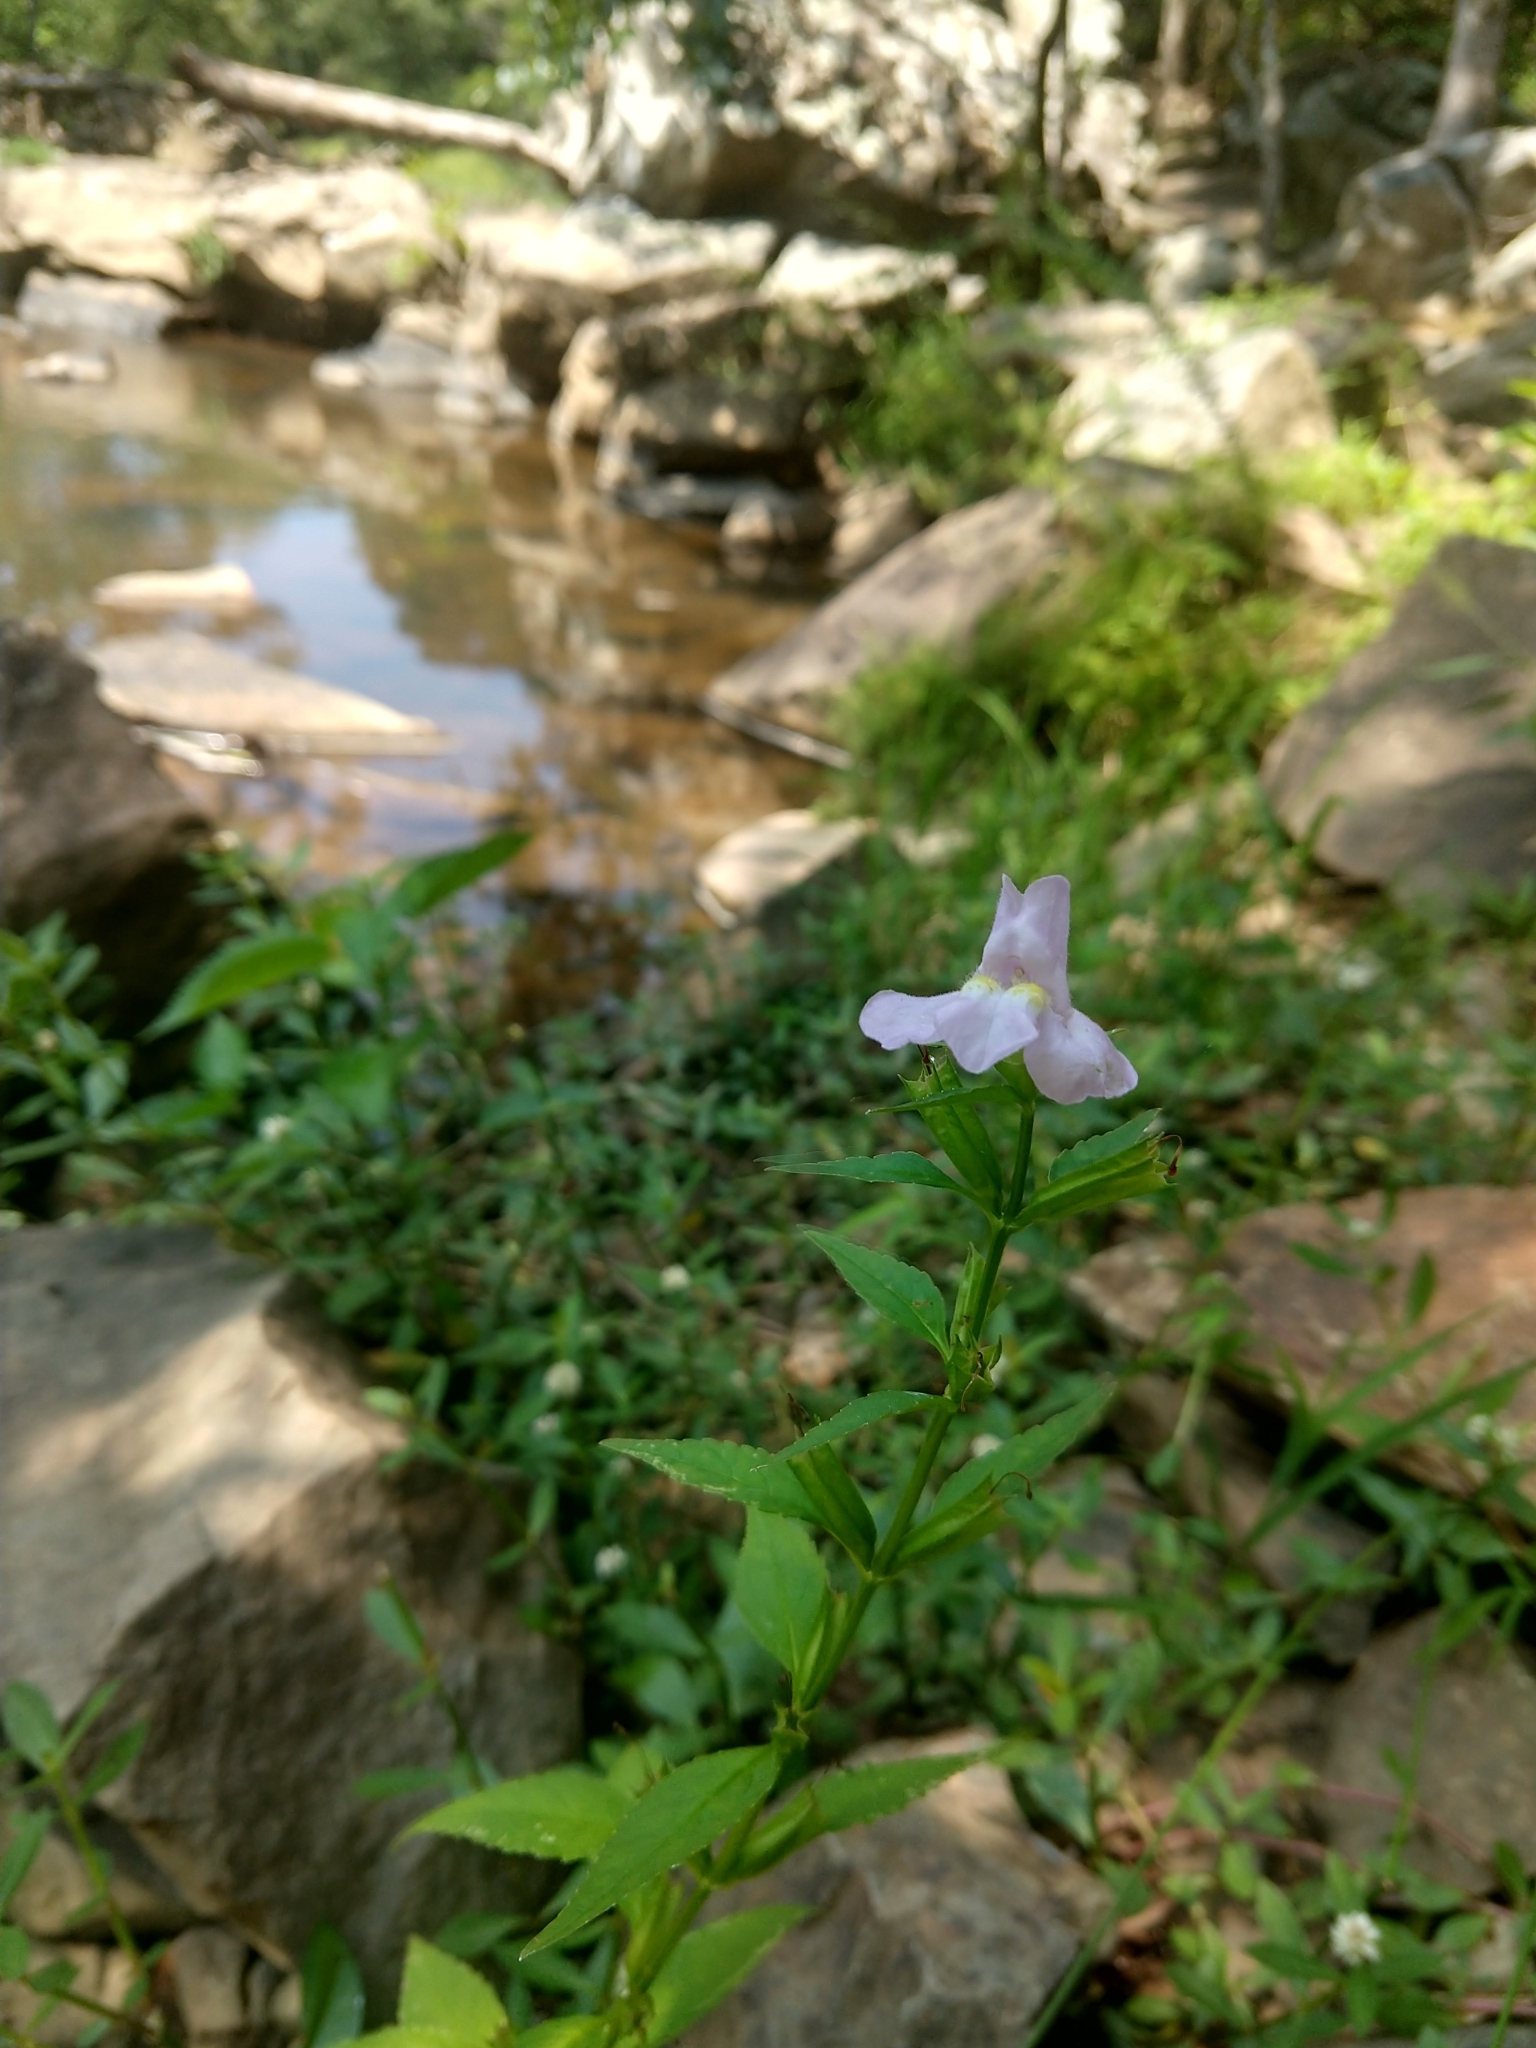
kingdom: Plantae
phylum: Tracheophyta
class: Magnoliopsida
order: Lamiales
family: Phrymaceae
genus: Mimulus
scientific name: Mimulus alatus
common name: Sharp-wing monkey-flower
